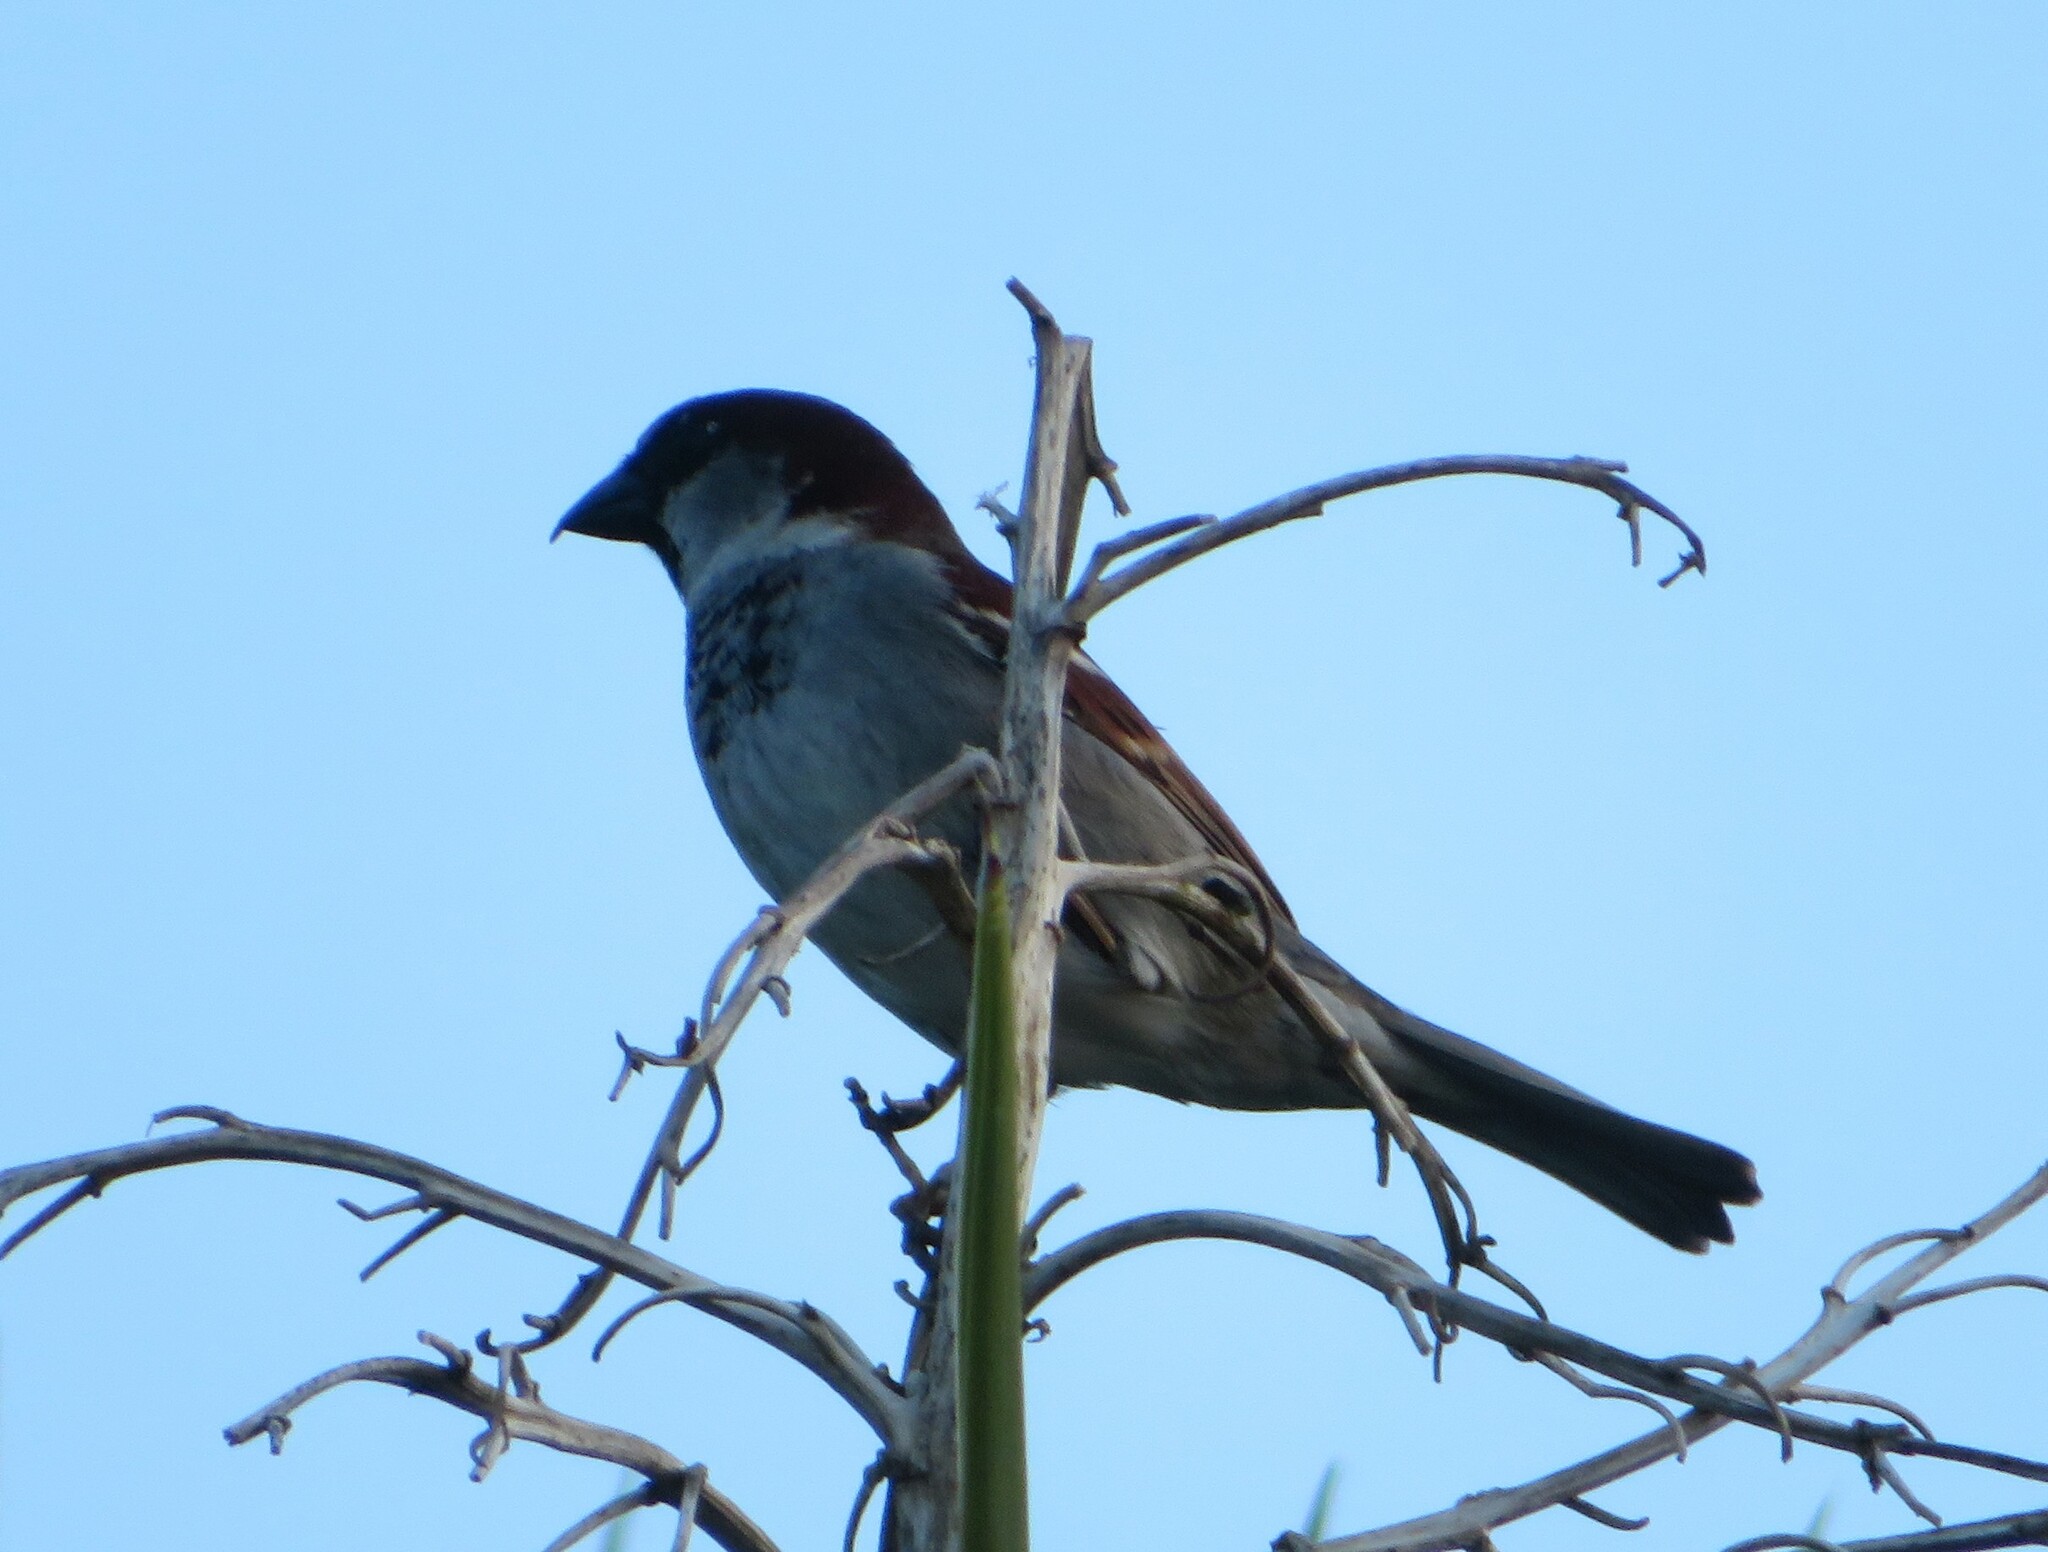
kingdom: Animalia
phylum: Chordata
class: Aves
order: Passeriformes
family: Passeridae
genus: Passer
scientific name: Passer domesticus
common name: House sparrow
